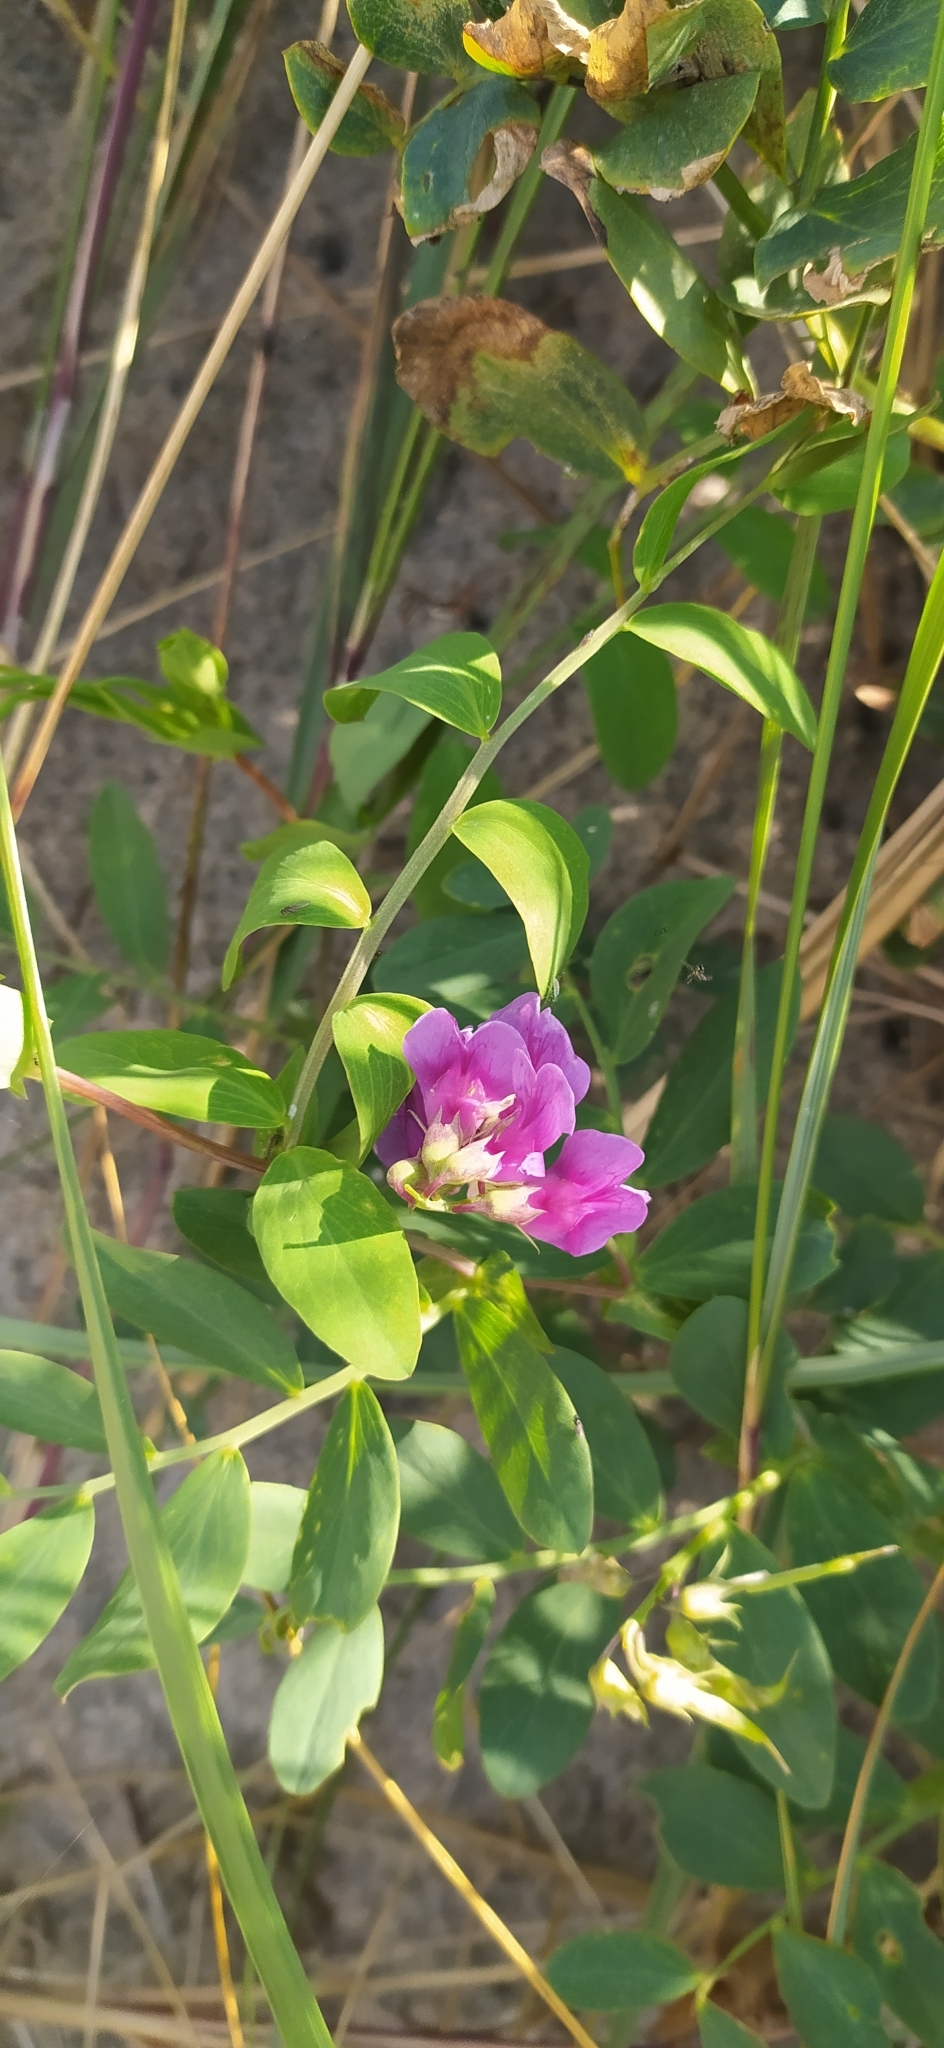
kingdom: Plantae
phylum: Tracheophyta
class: Magnoliopsida
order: Fabales
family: Fabaceae
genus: Lathyrus
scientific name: Lathyrus japonicus
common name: Sea pea
